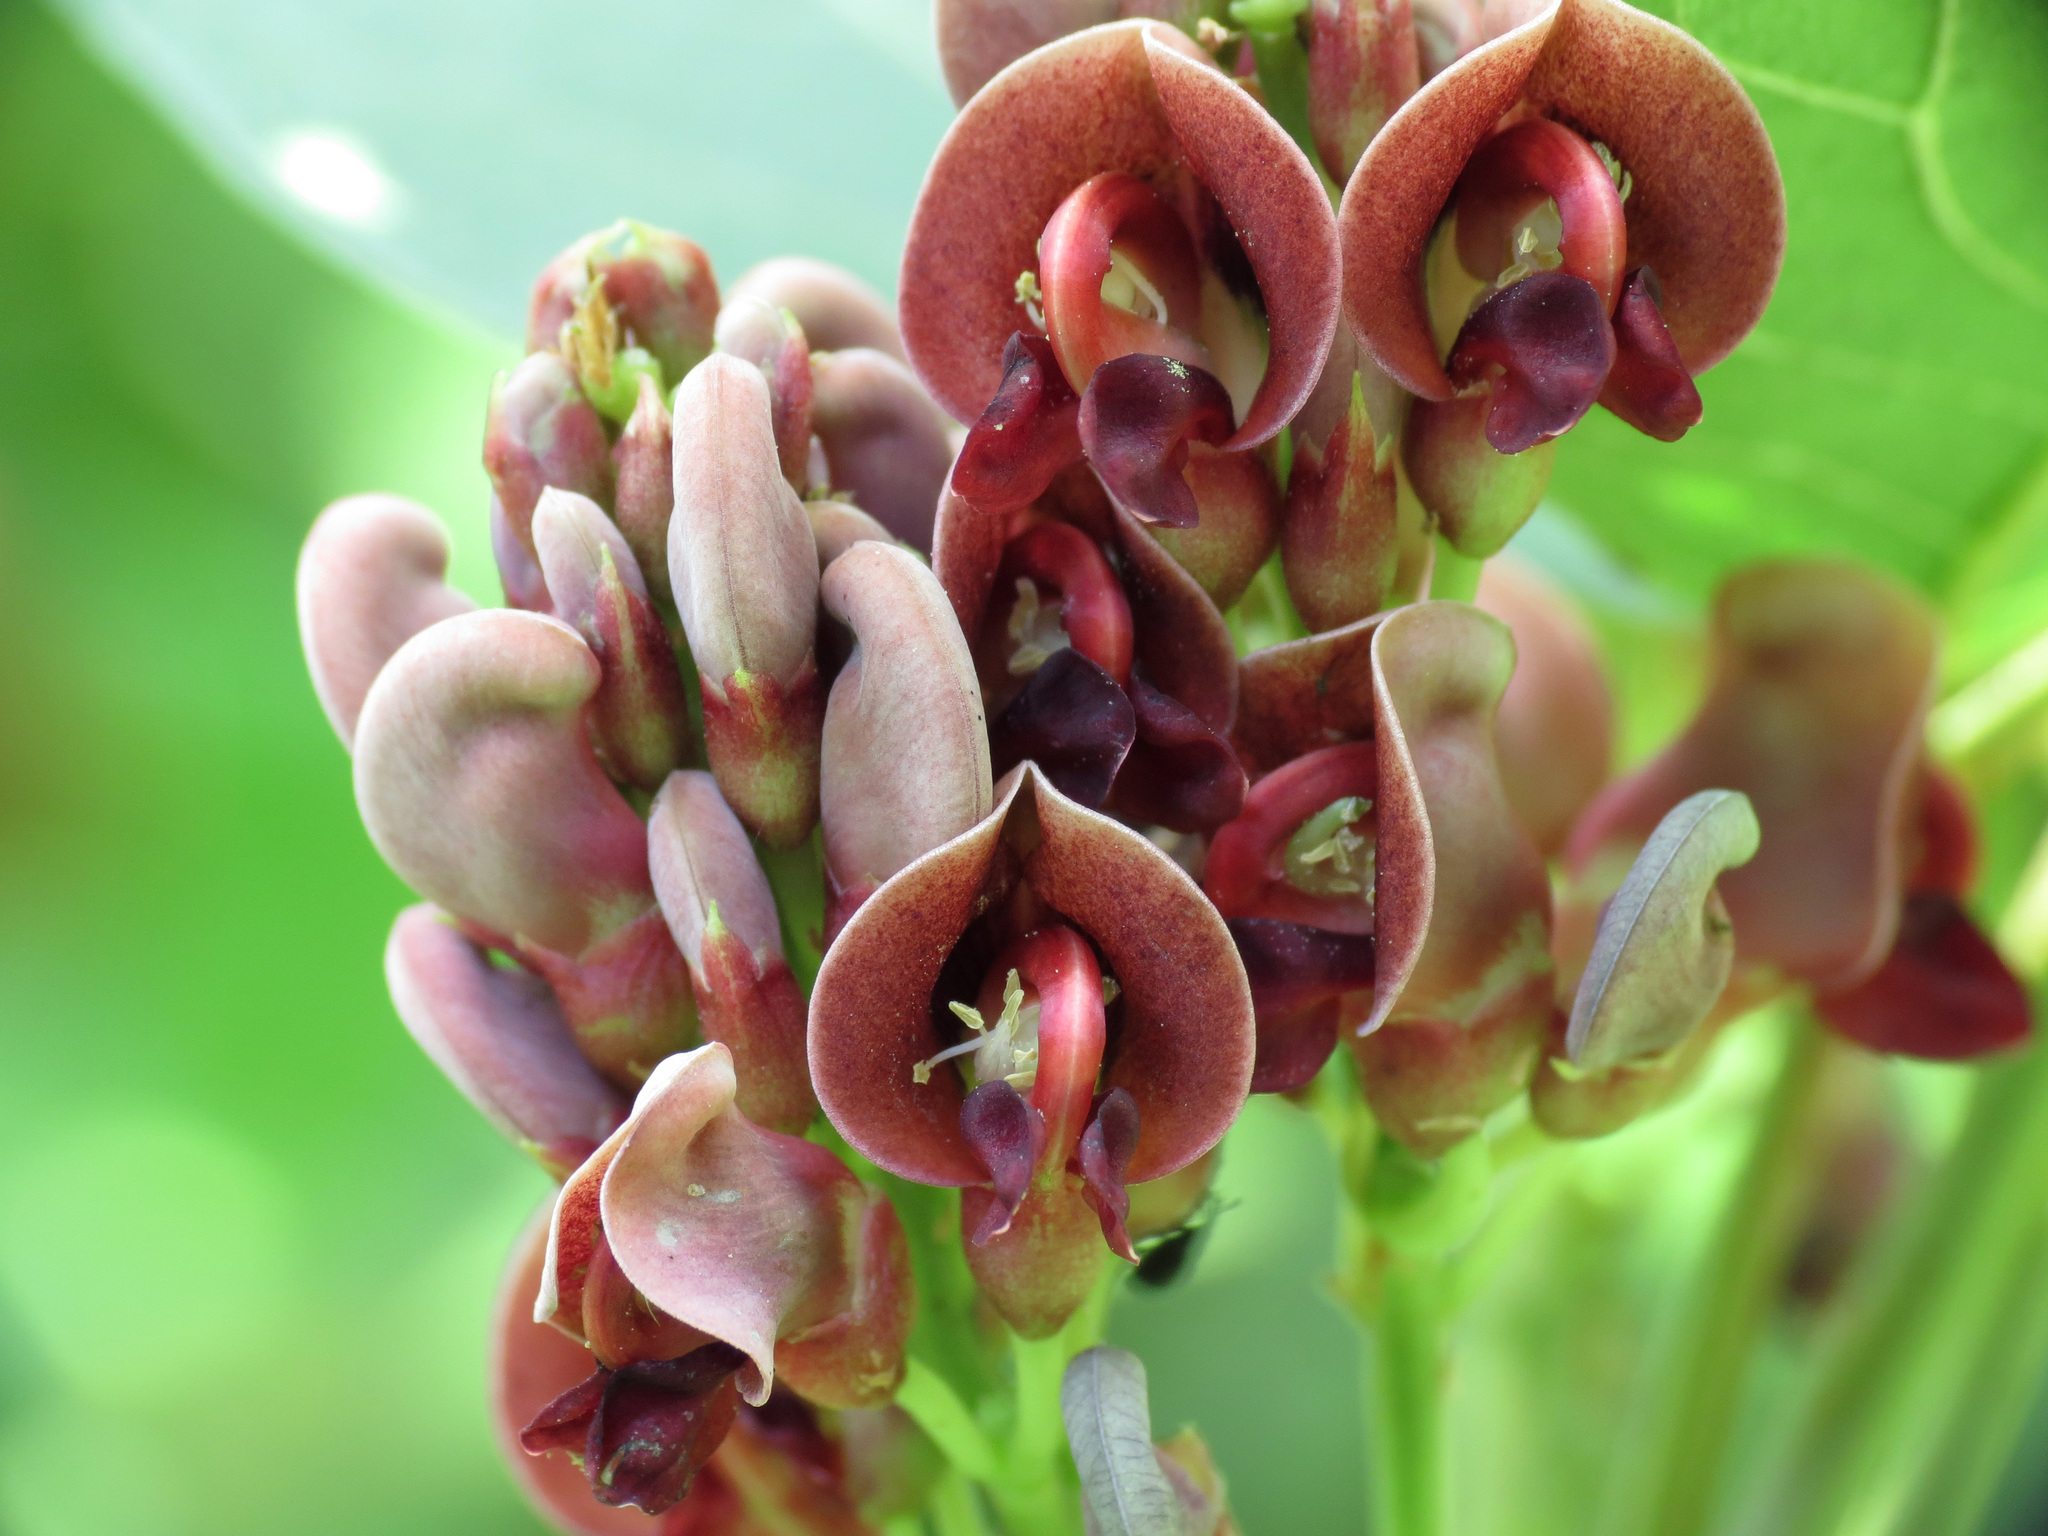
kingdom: Plantae
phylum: Tracheophyta
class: Magnoliopsida
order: Fabales
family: Fabaceae
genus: Apios
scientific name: Apios americana
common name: American potato-bean
